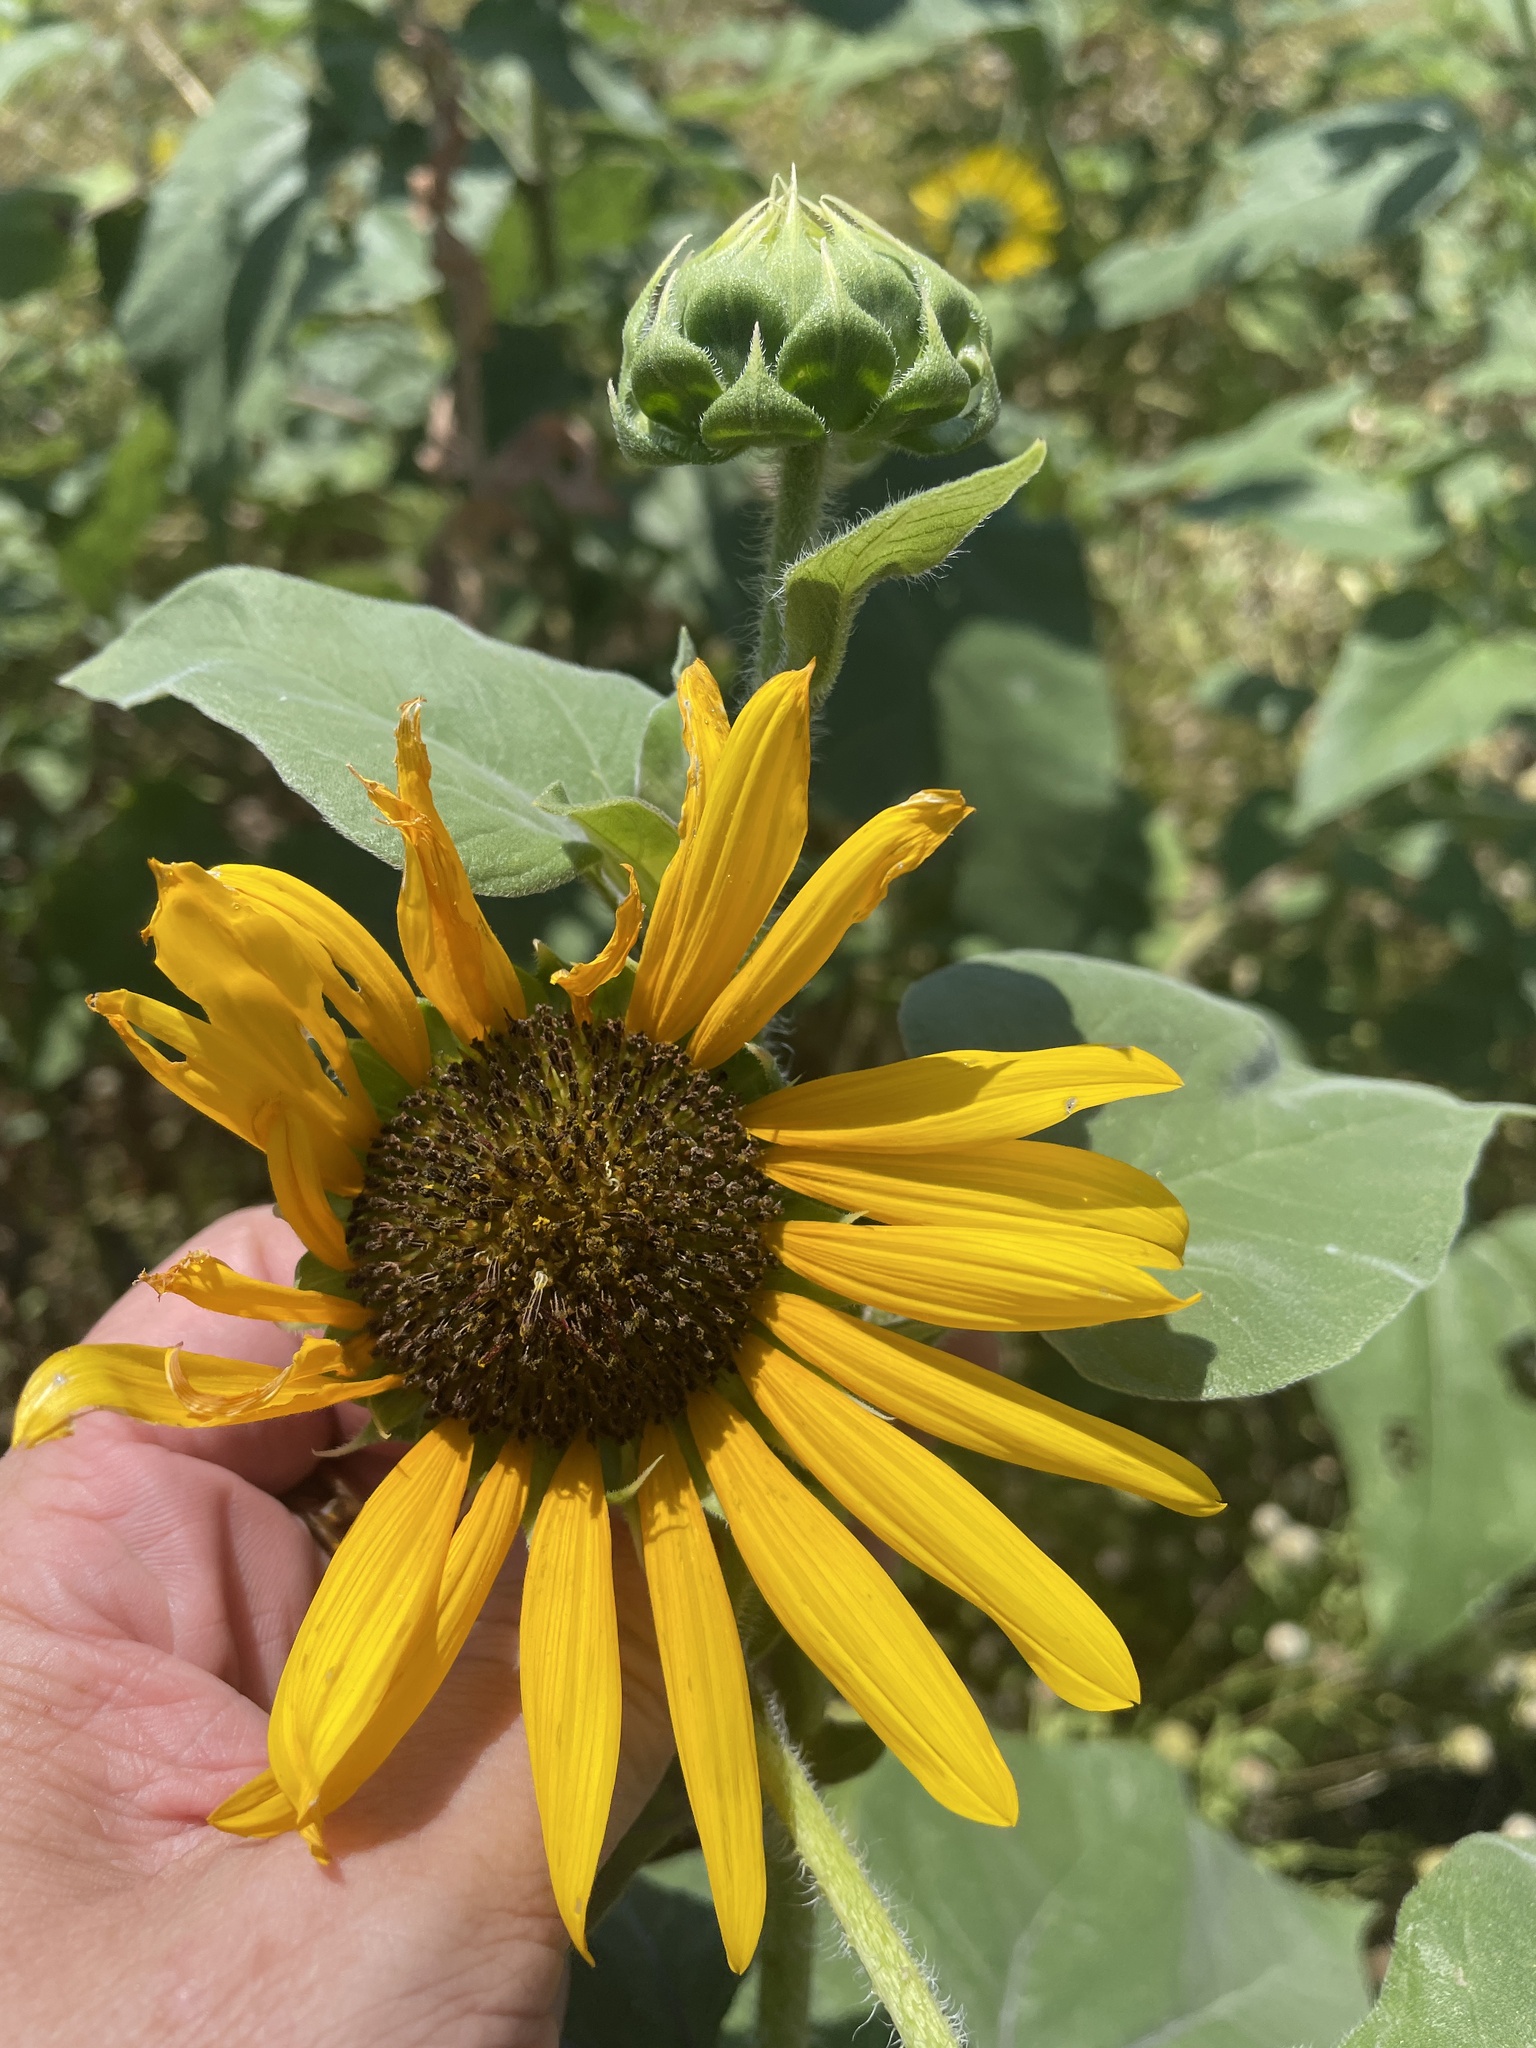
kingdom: Plantae
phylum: Tracheophyta
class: Magnoliopsida
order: Asterales
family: Asteraceae
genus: Helianthus
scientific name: Helianthus annuus
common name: Sunflower
